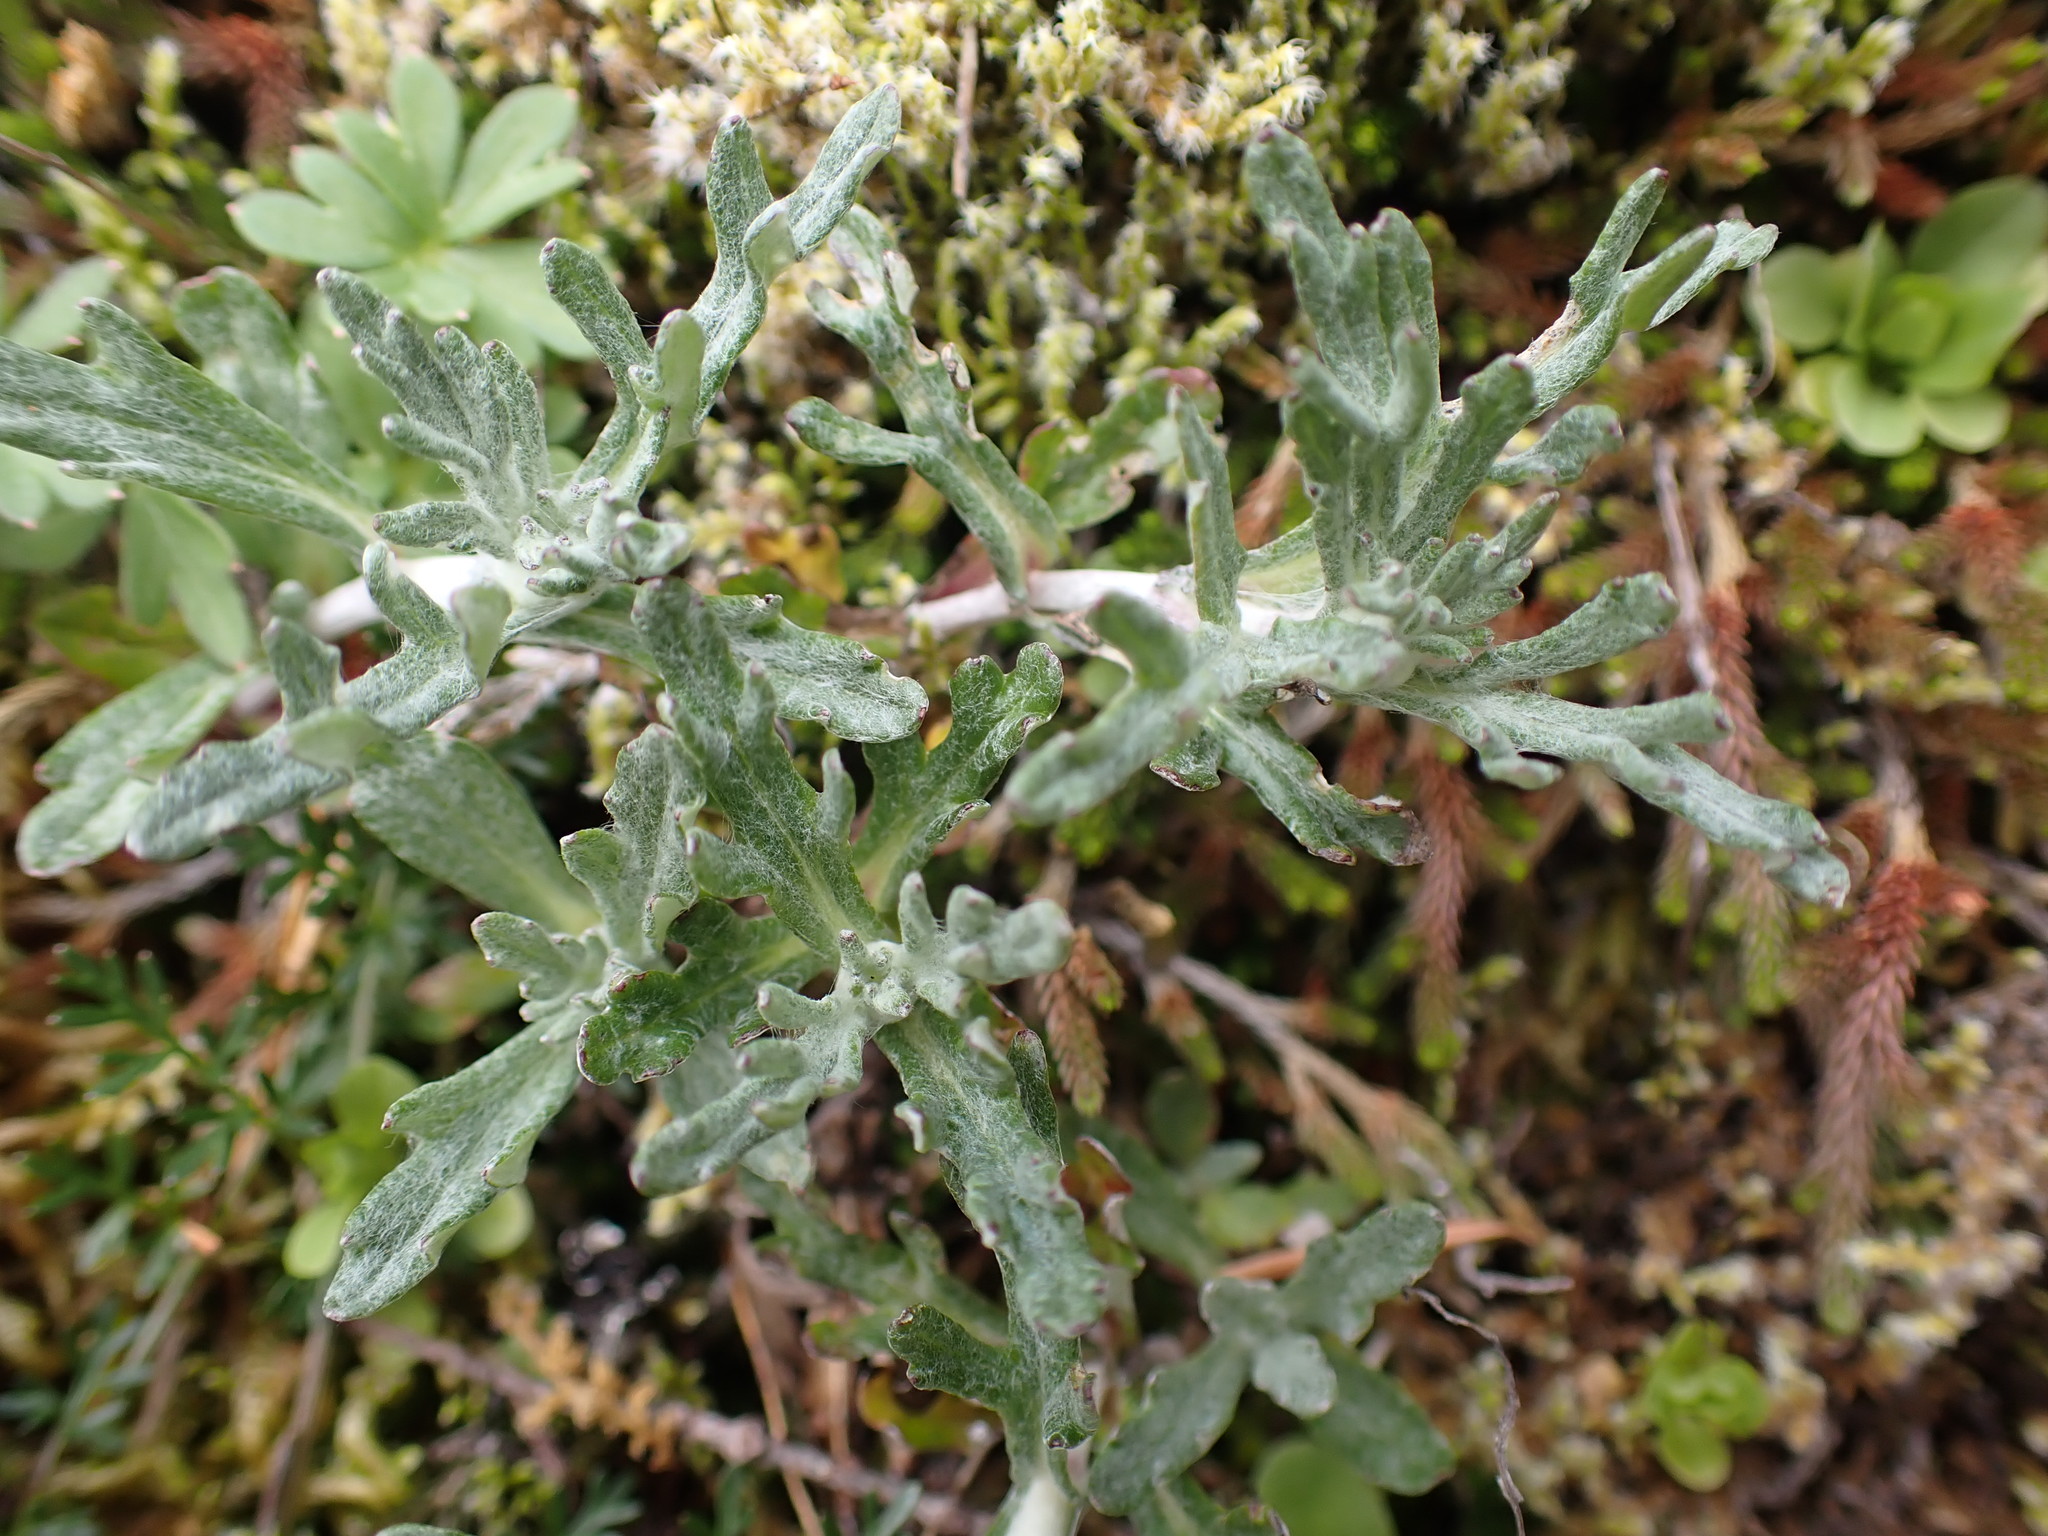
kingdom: Plantae
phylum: Tracheophyta
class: Magnoliopsida
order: Asterales
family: Asteraceae
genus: Eriophyllum
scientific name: Eriophyllum lanatum
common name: Common woolly-sunflower
